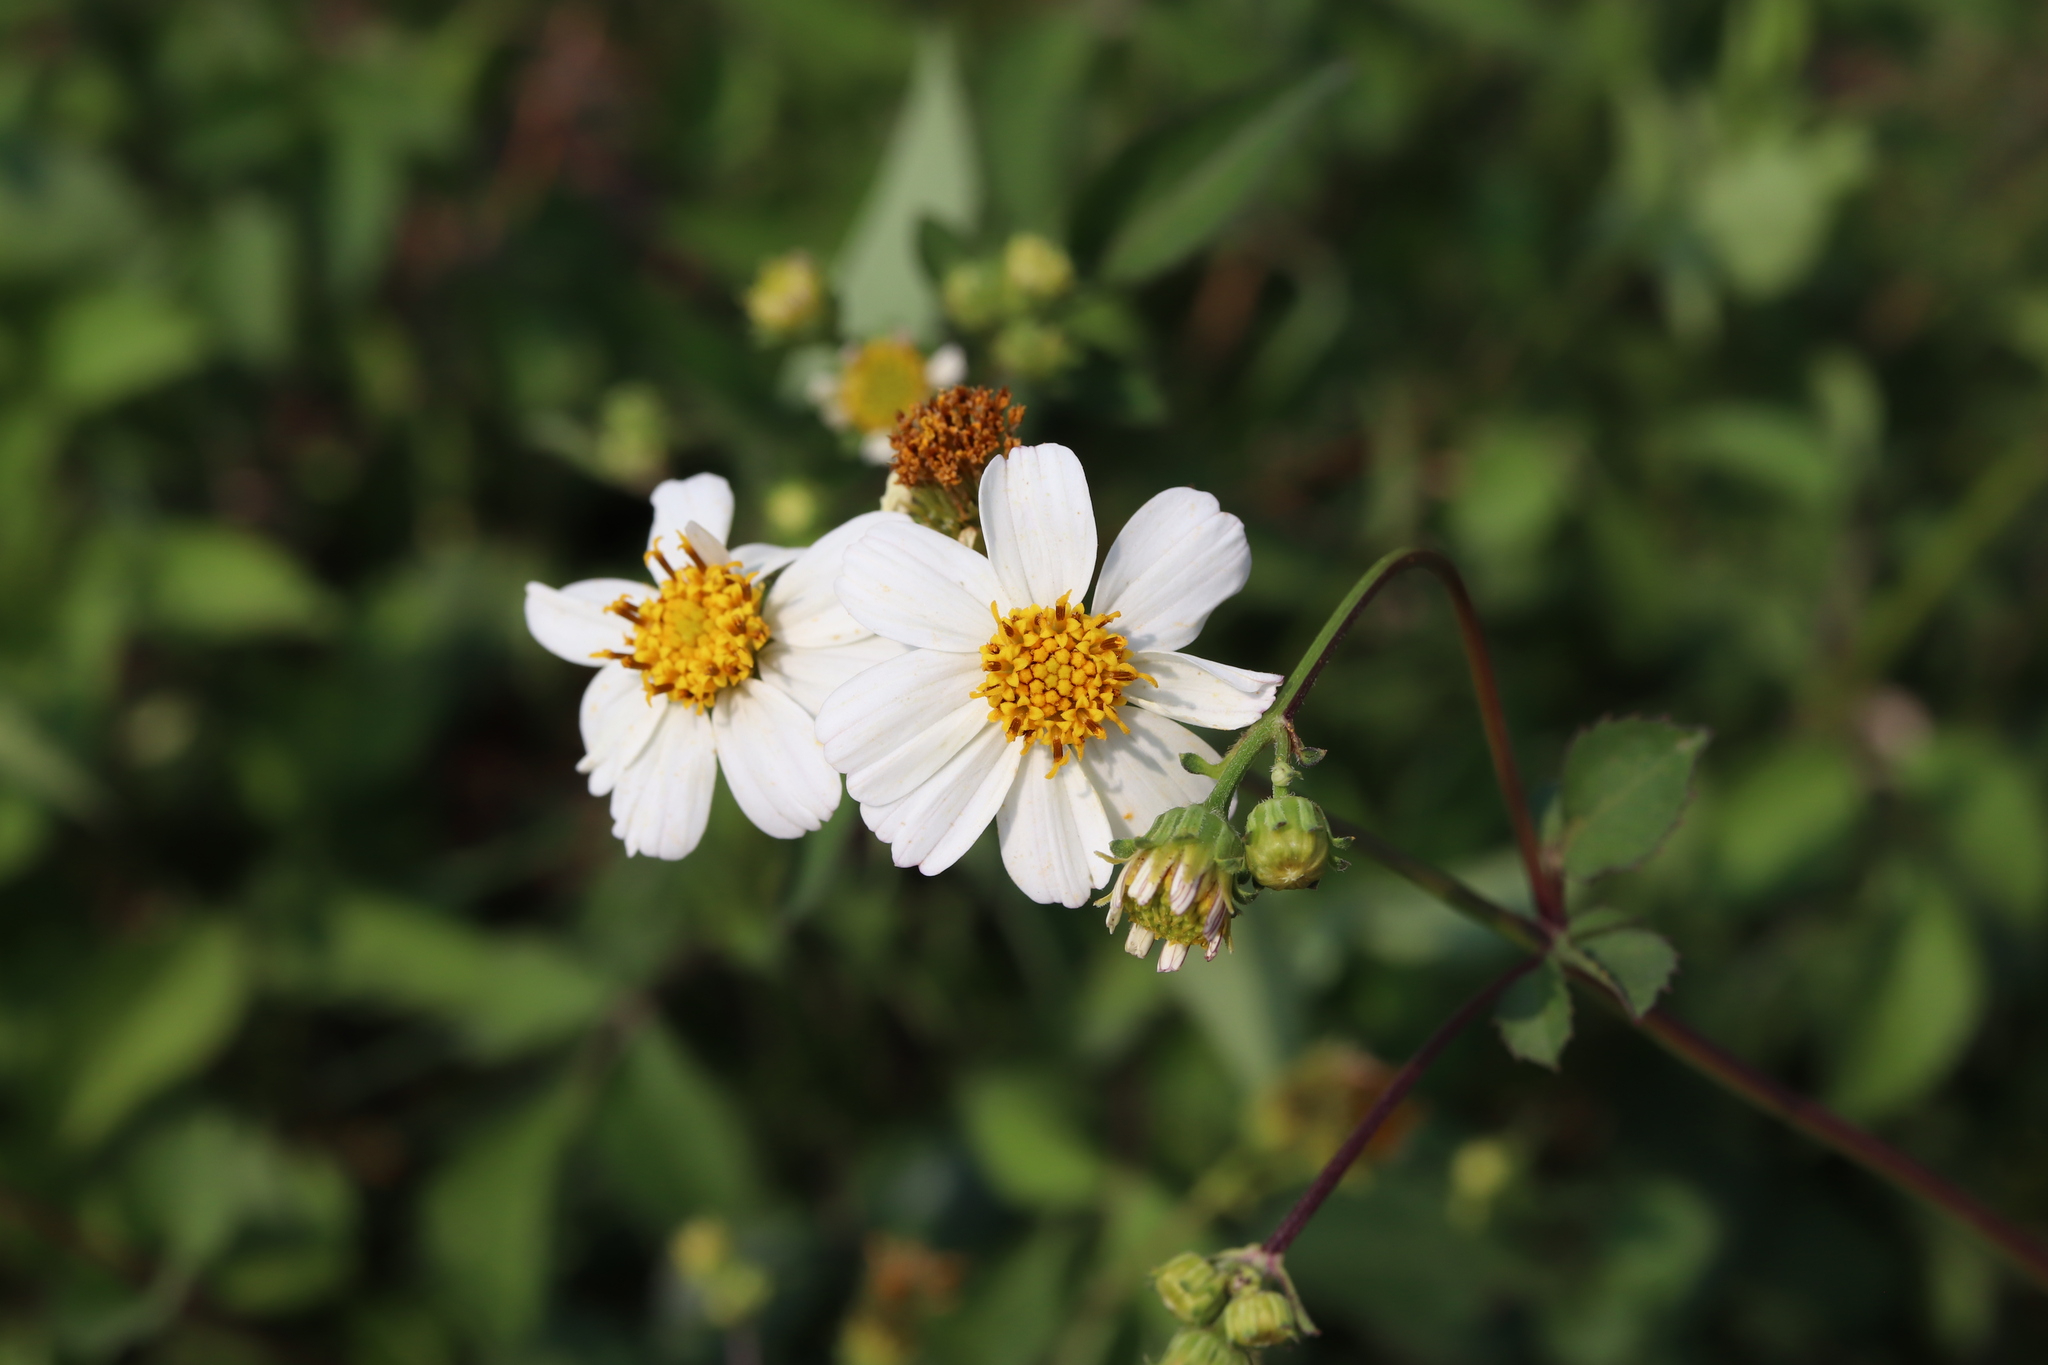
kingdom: Plantae
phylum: Tracheophyta
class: Magnoliopsida
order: Asterales
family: Asteraceae
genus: Bidens
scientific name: Bidens alba
